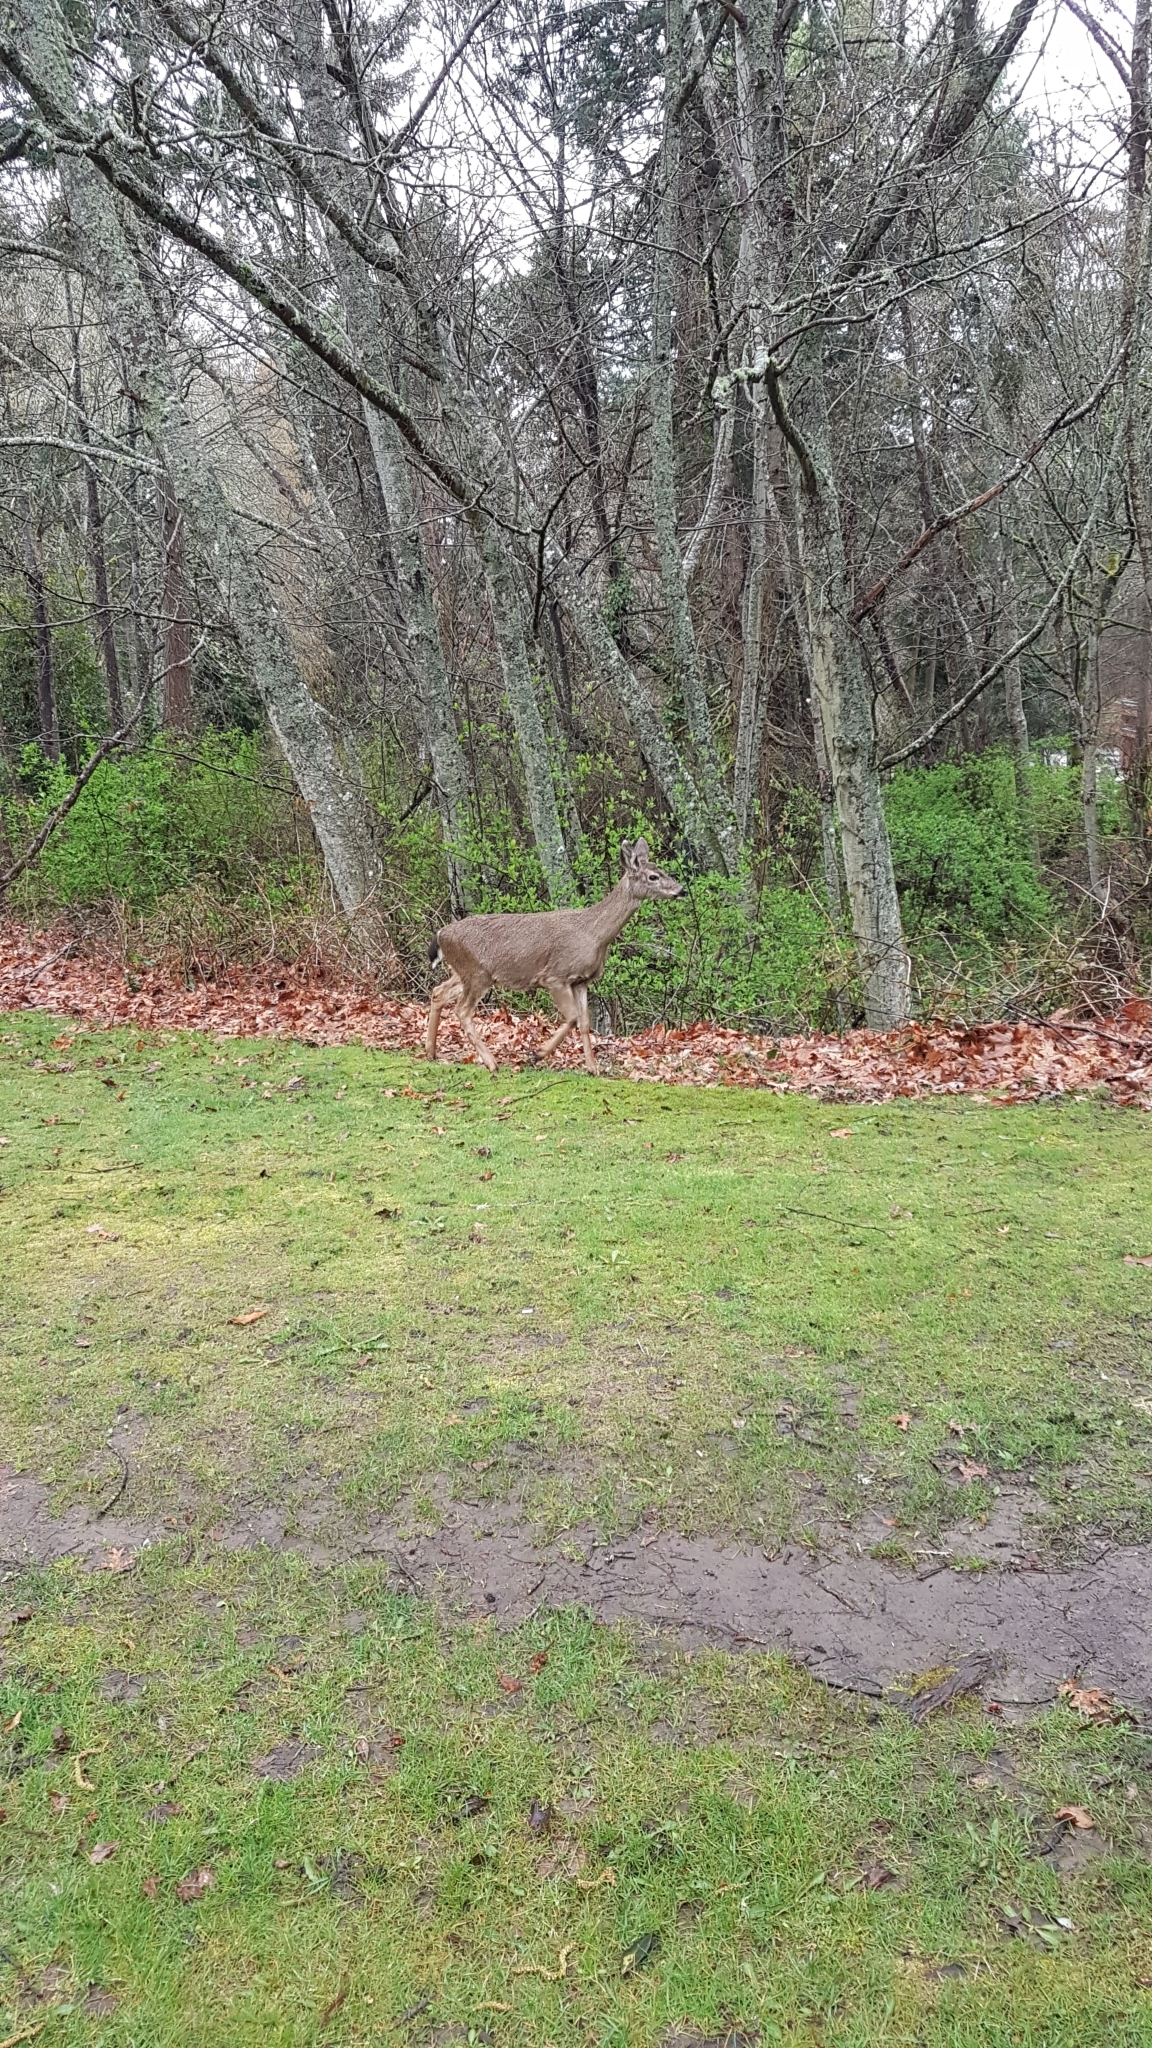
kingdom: Animalia
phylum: Chordata
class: Mammalia
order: Artiodactyla
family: Cervidae
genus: Odocoileus
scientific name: Odocoileus hemionus
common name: Mule deer
